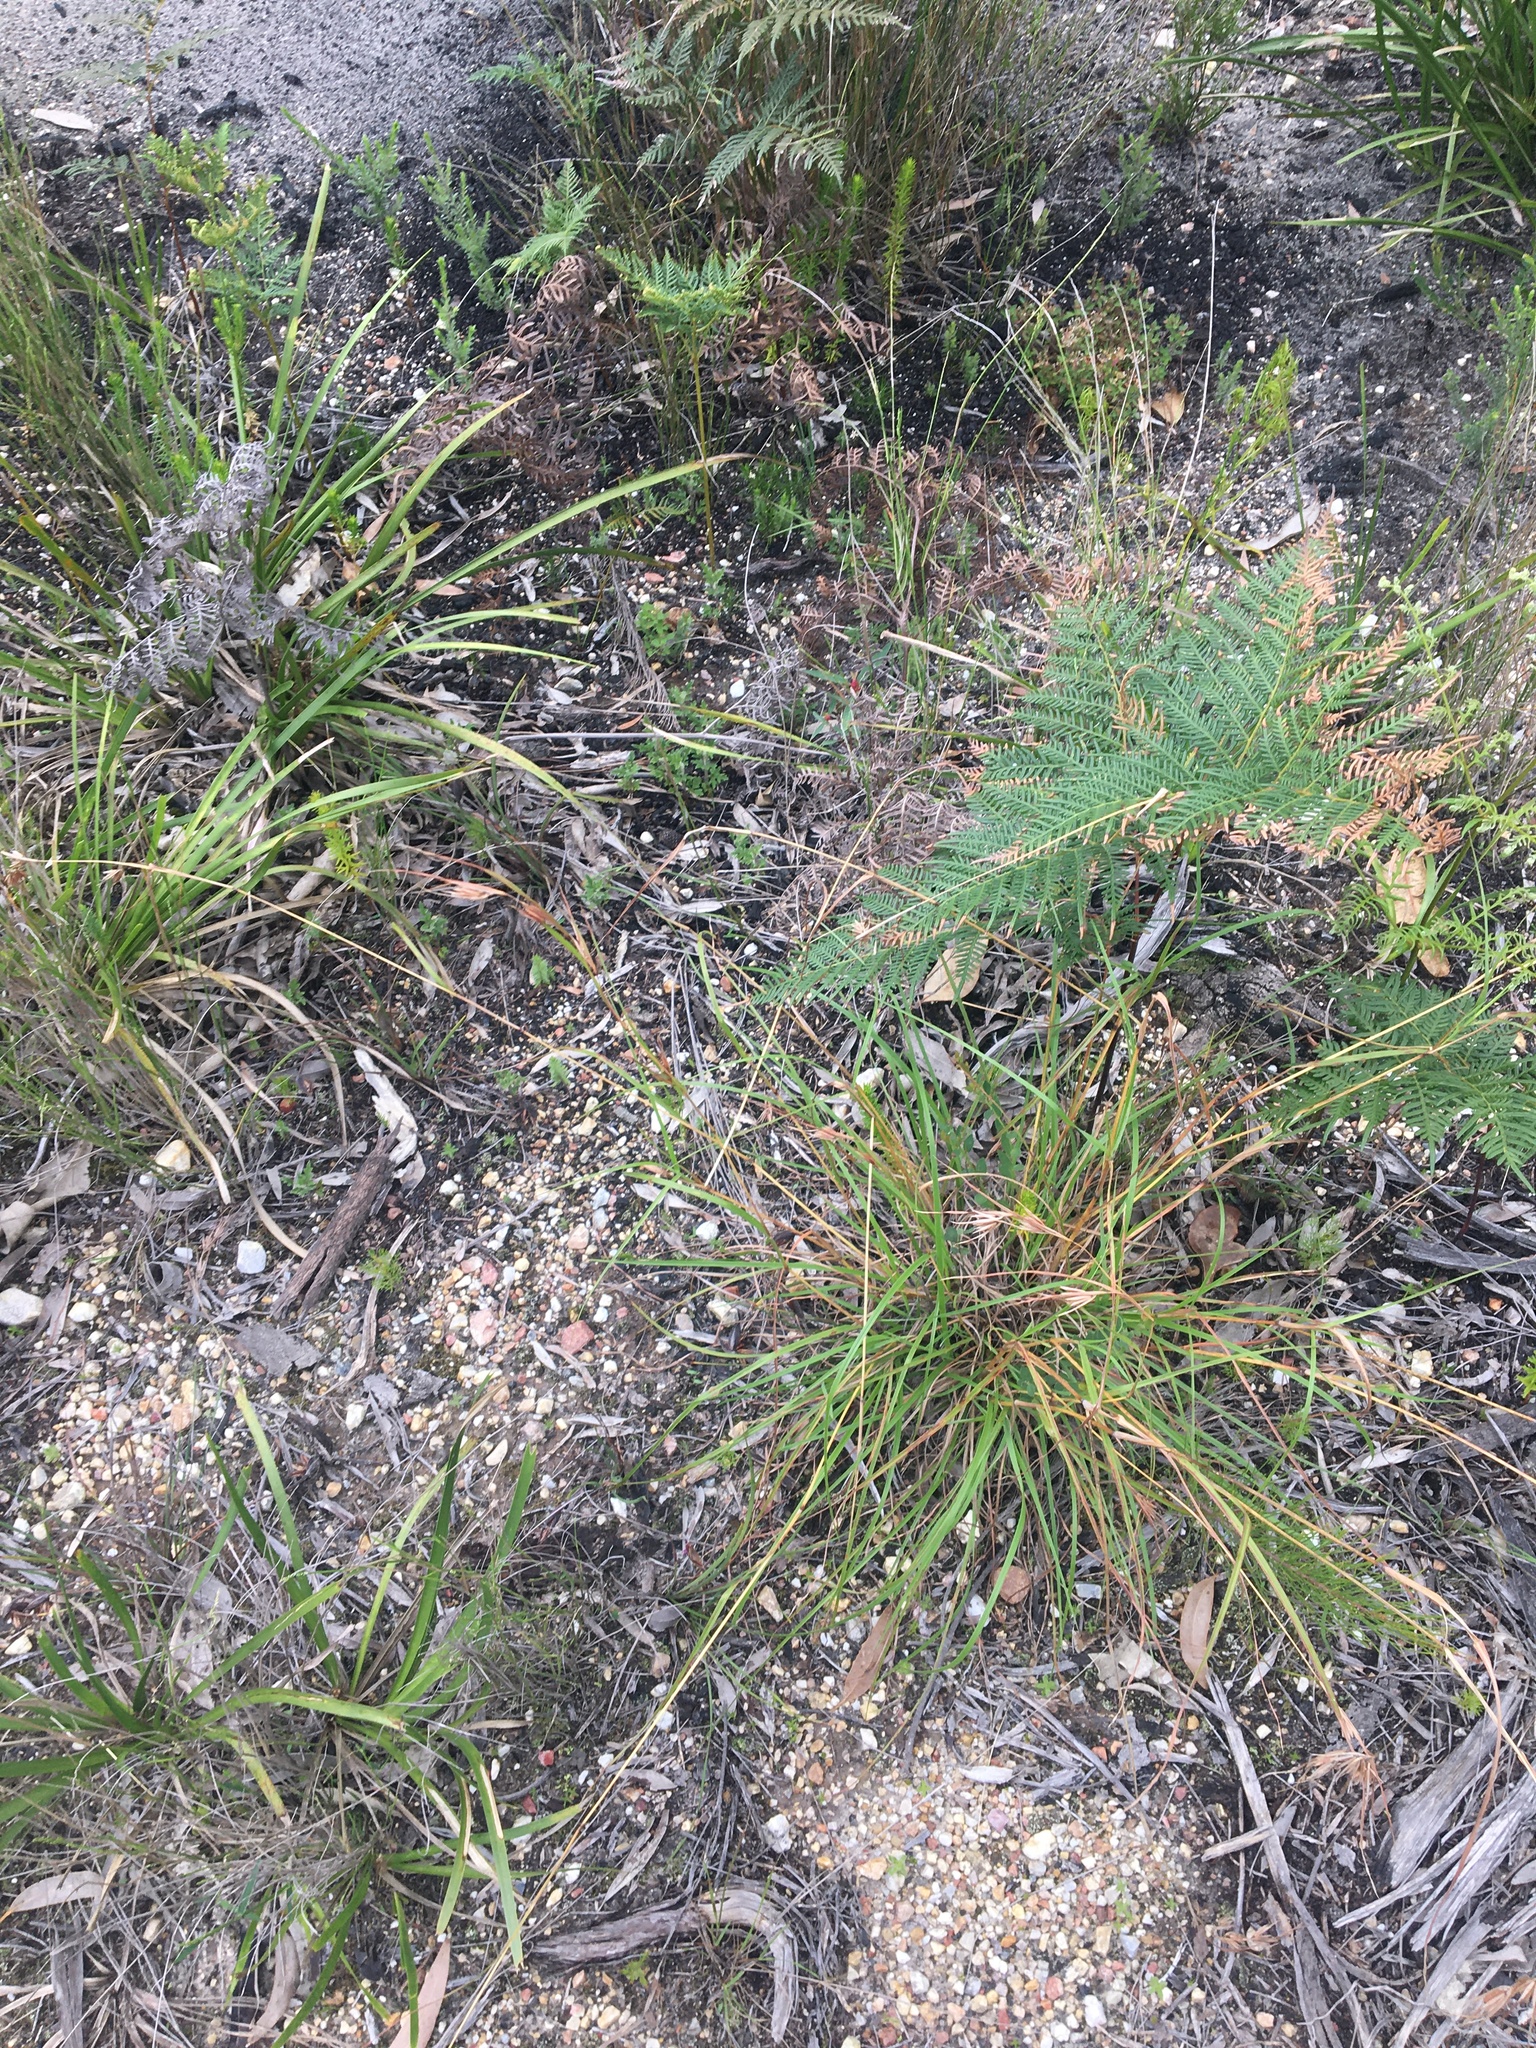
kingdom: Plantae
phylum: Tracheophyta
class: Liliopsida
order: Poales
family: Poaceae
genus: Themeda
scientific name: Themeda triandra
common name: Kangaroo grass
